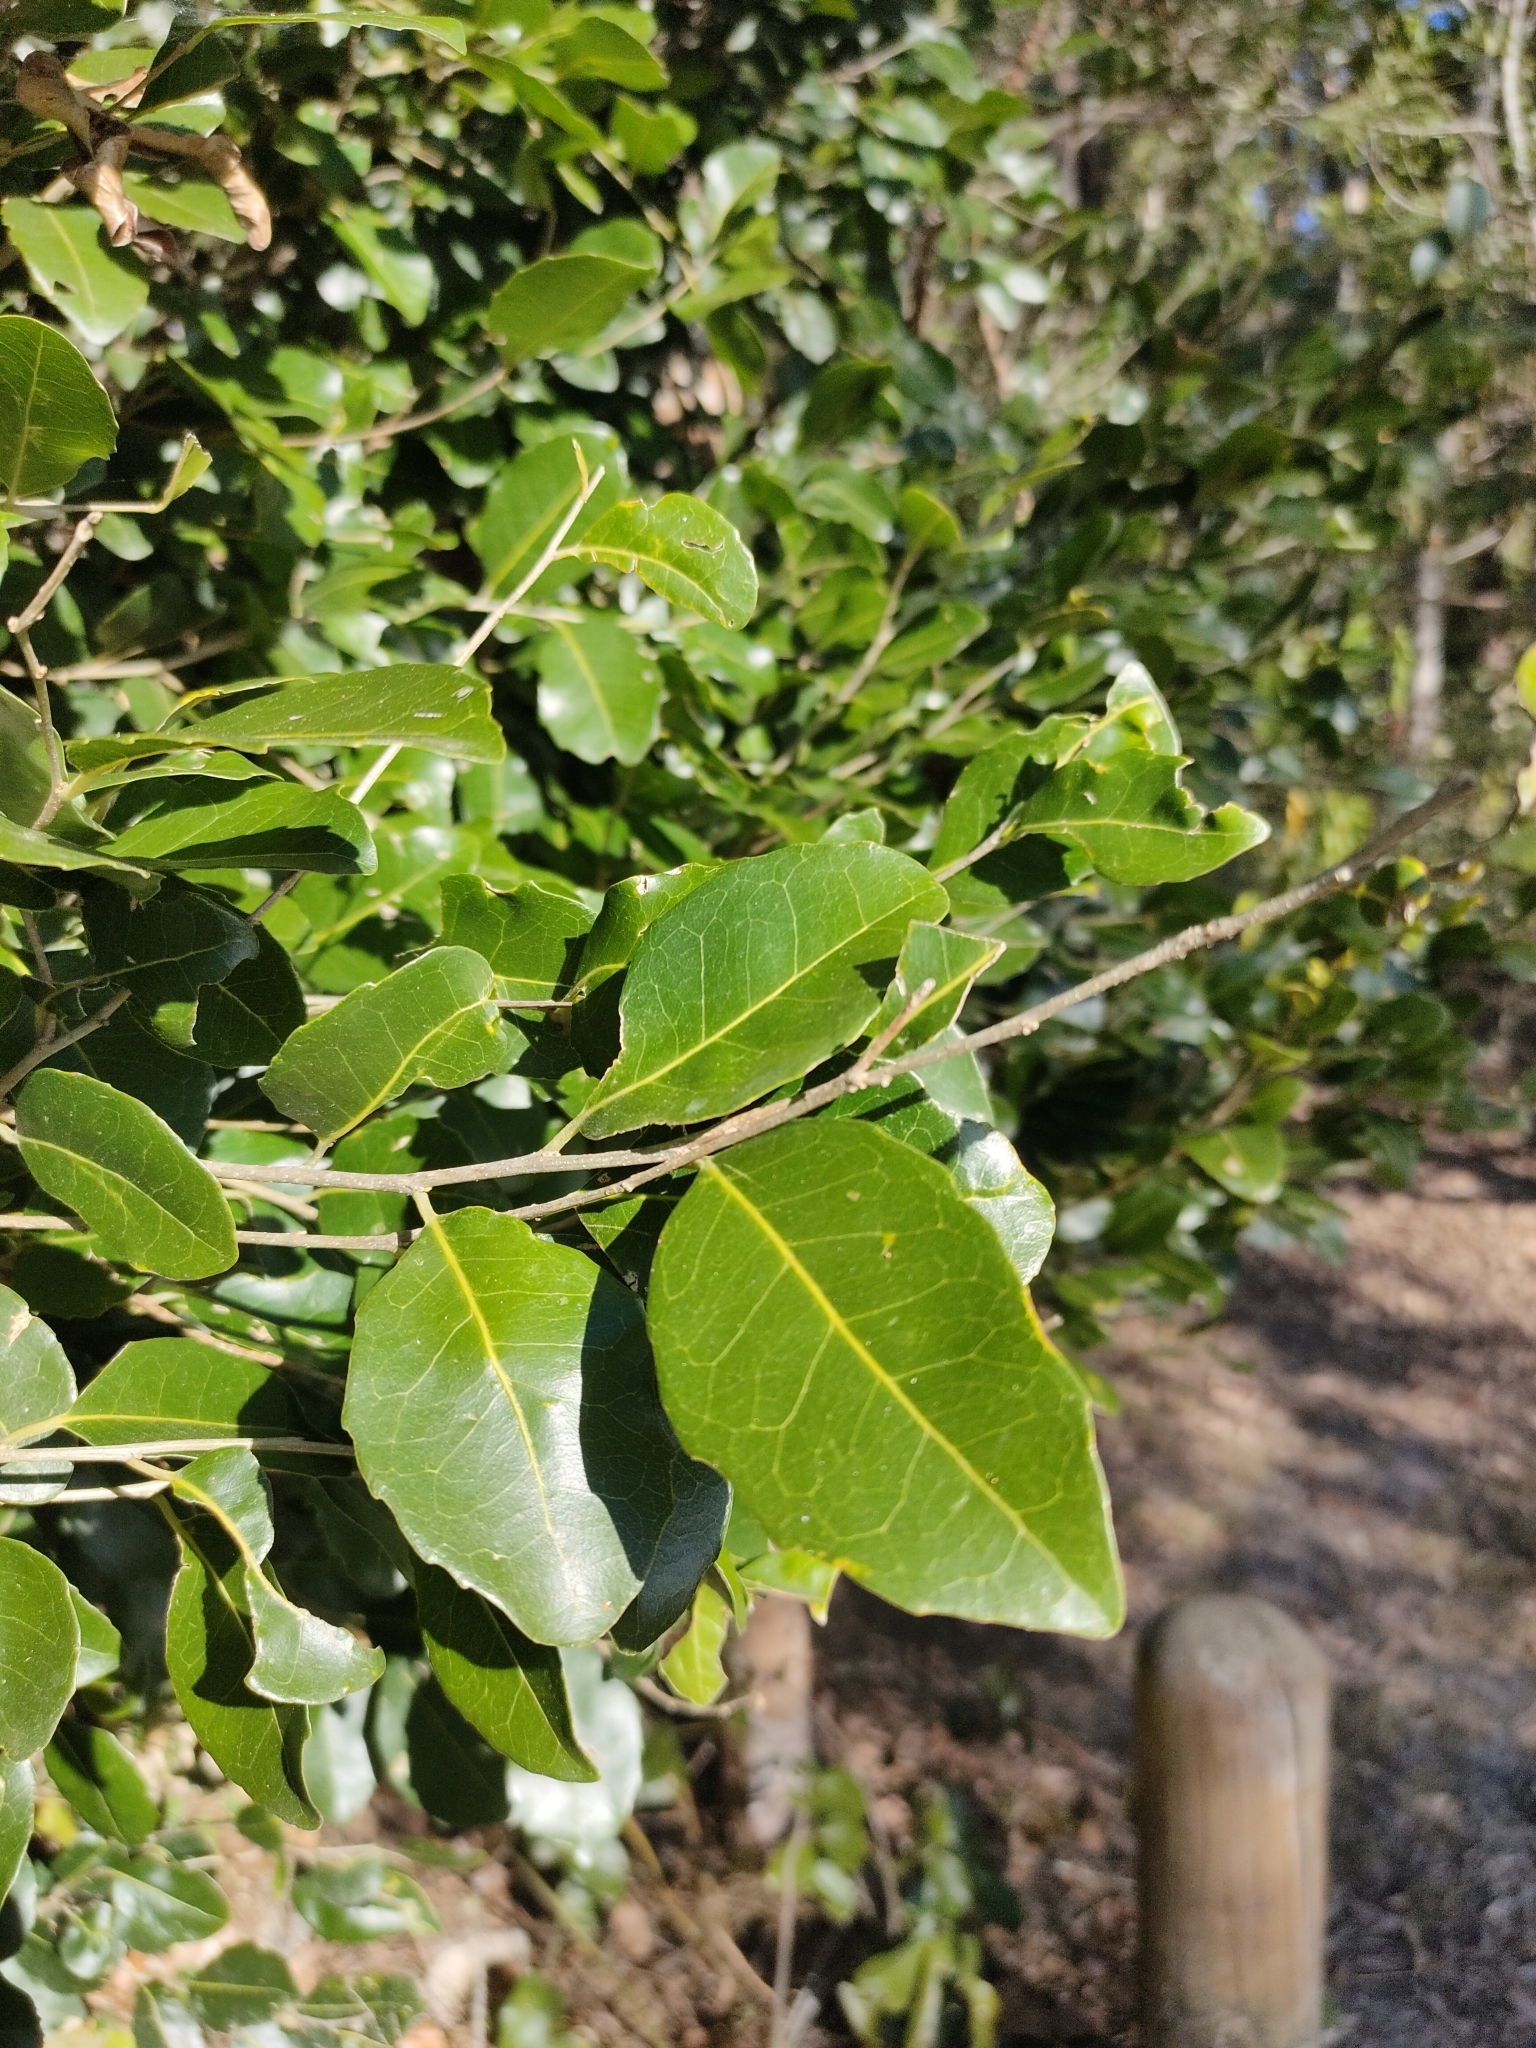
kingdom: Plantae
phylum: Tracheophyta
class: Magnoliopsida
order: Malpighiales
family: Putranjivaceae
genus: Drypetes
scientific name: Drypetes deplanchei
